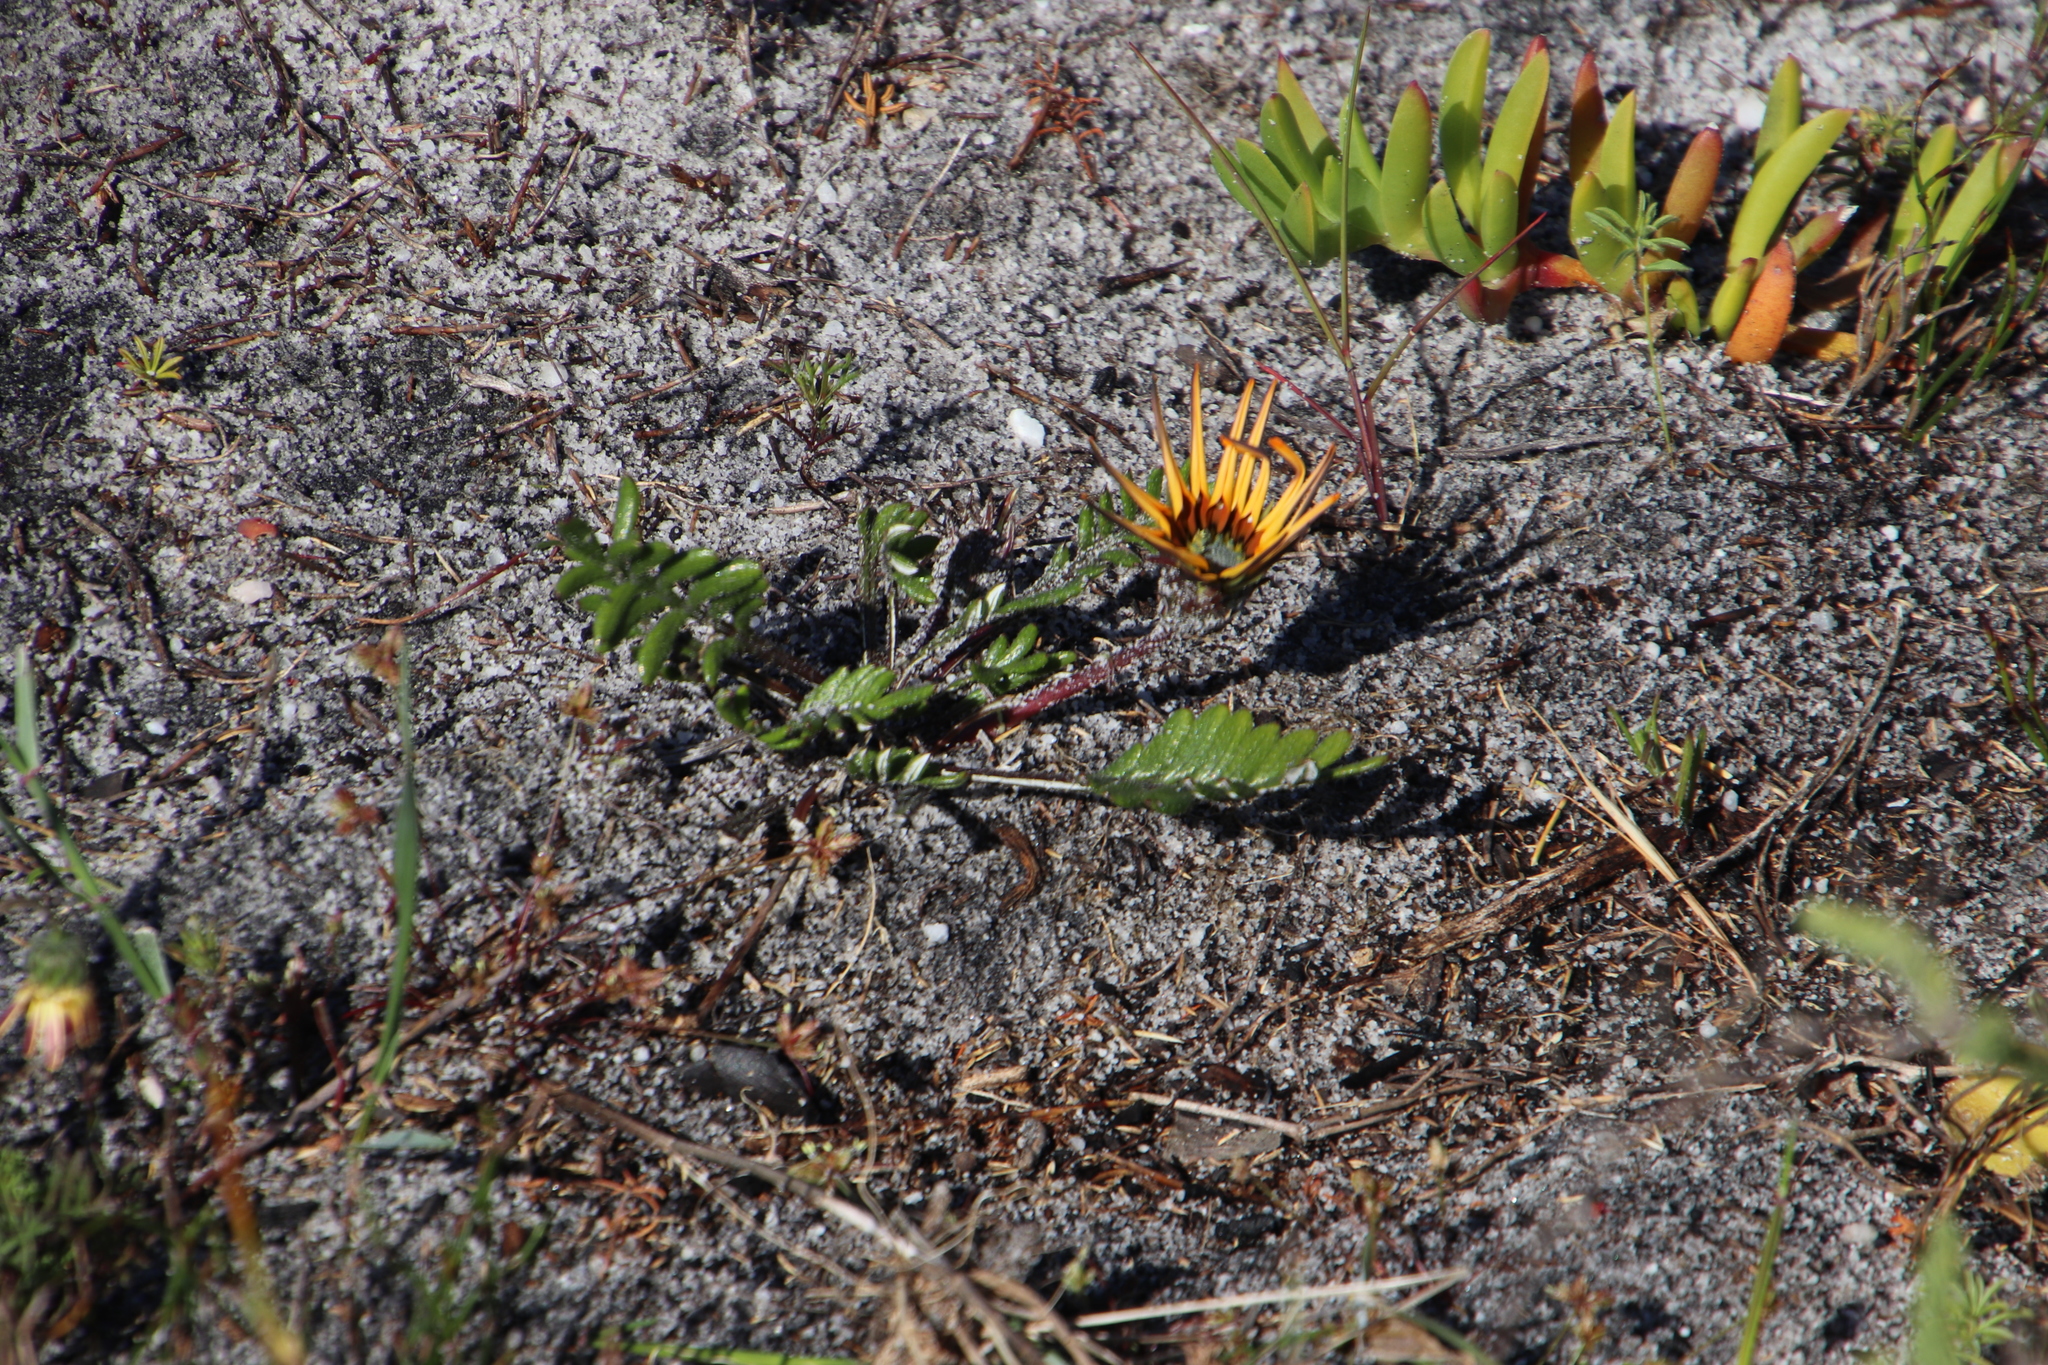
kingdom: Plantae
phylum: Tracheophyta
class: Magnoliopsida
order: Asterales
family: Asteraceae
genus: Gazania
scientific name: Gazania pectinata
